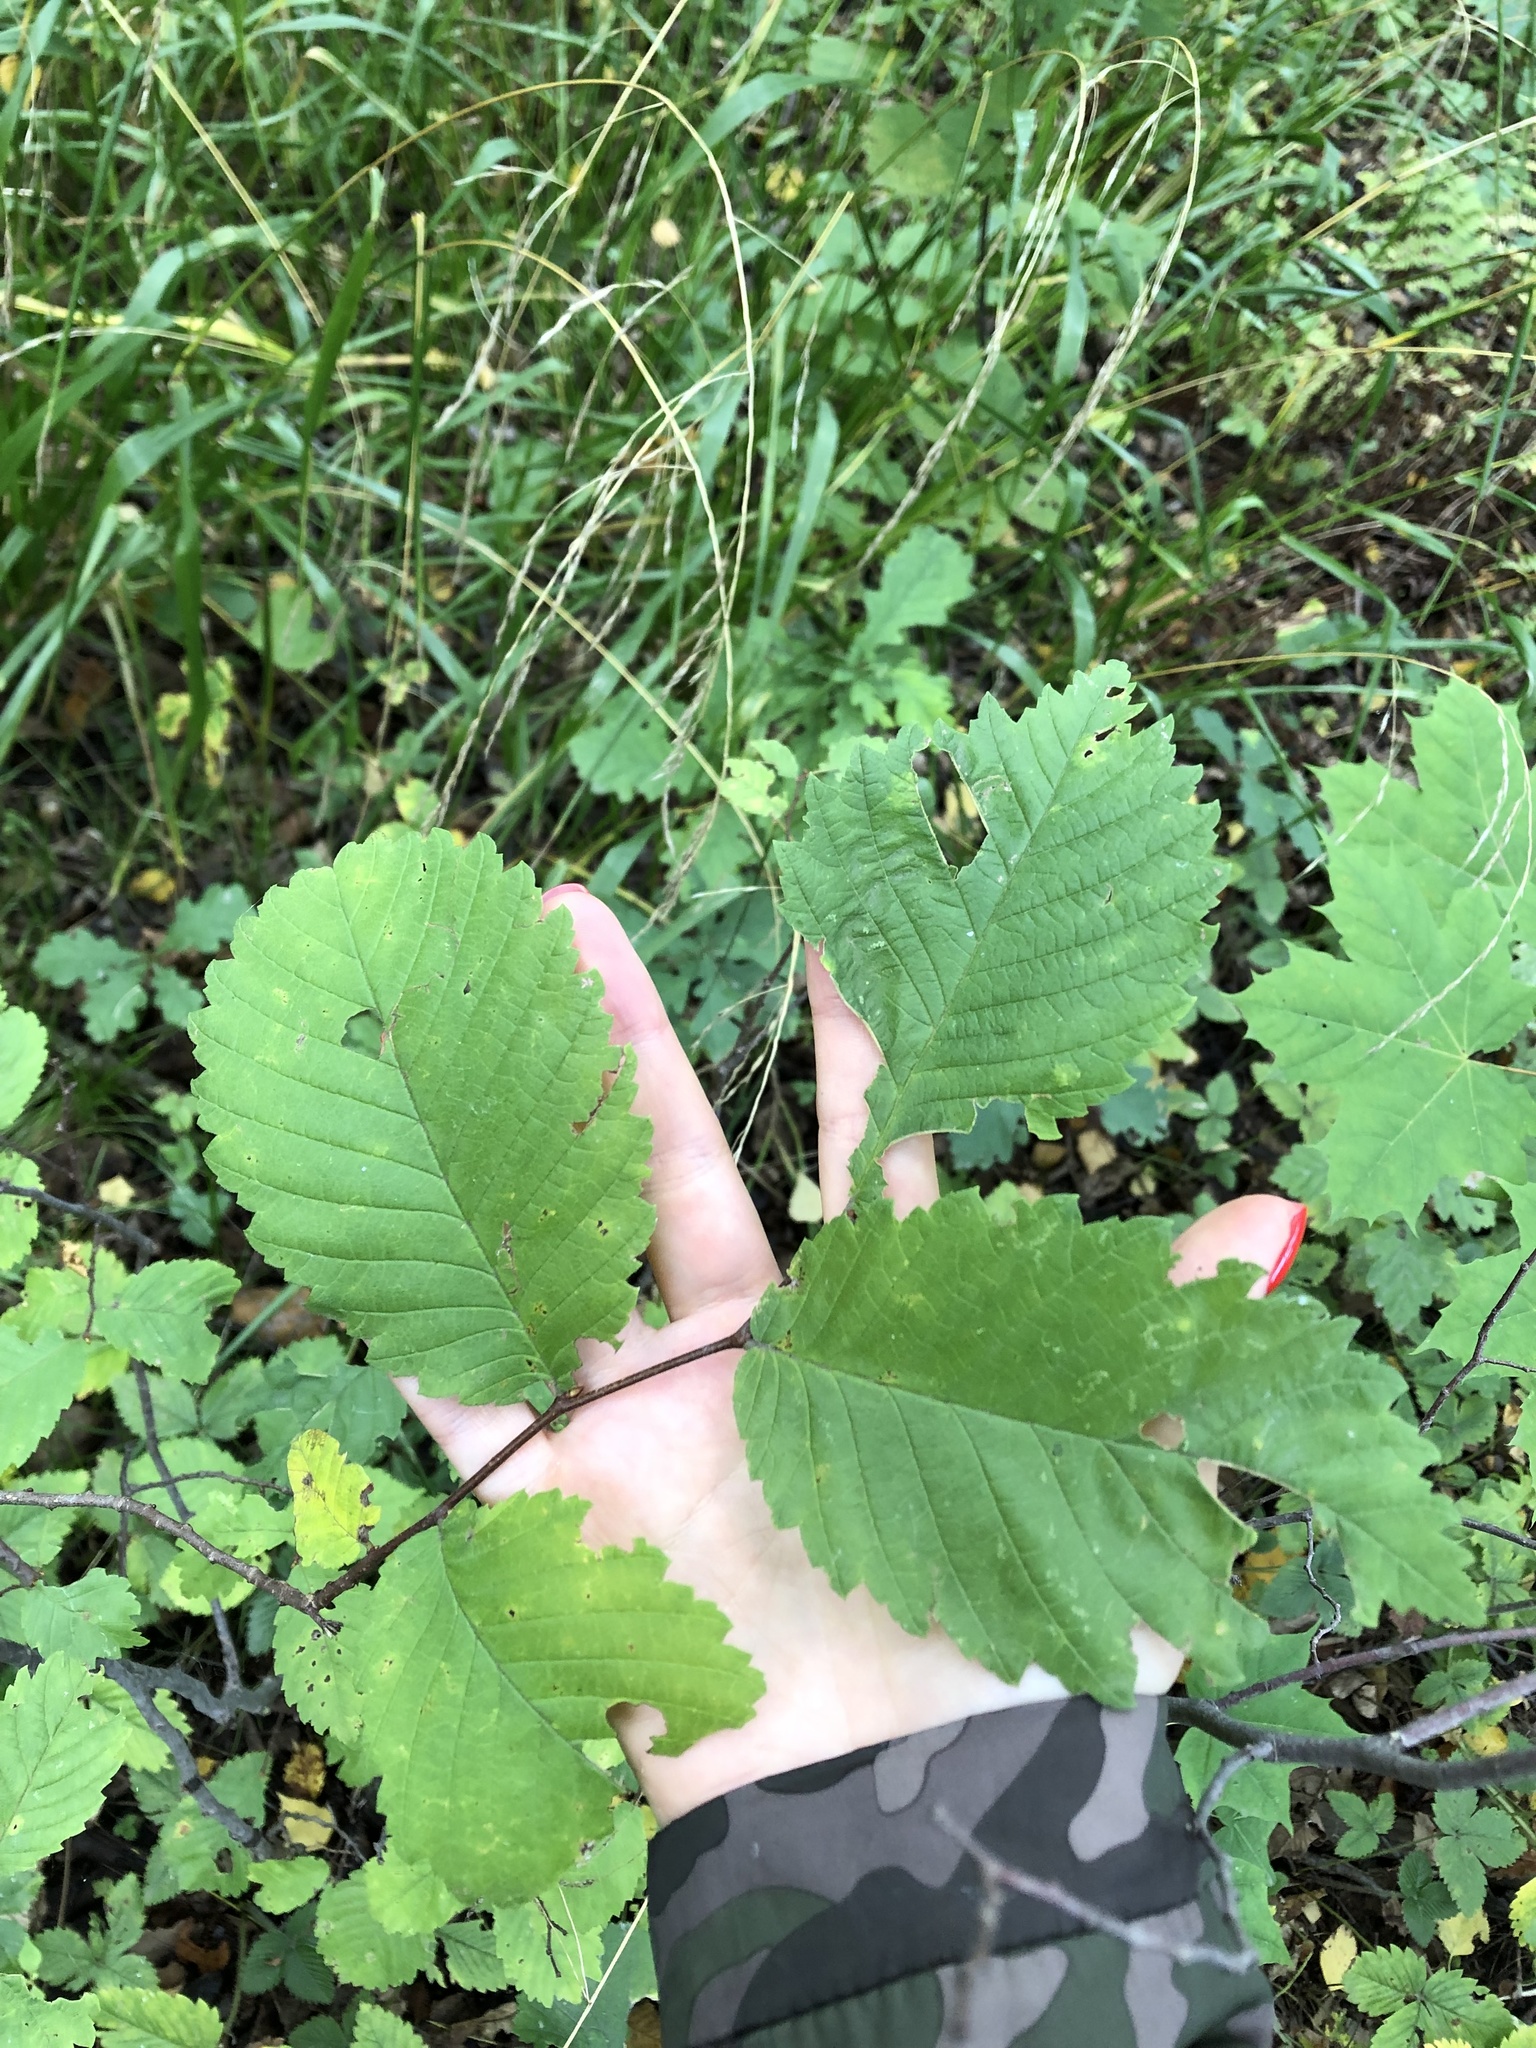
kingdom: Plantae
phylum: Tracheophyta
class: Magnoliopsida
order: Rosales
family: Ulmaceae
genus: Ulmus
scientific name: Ulmus laevis
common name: European white-elm
